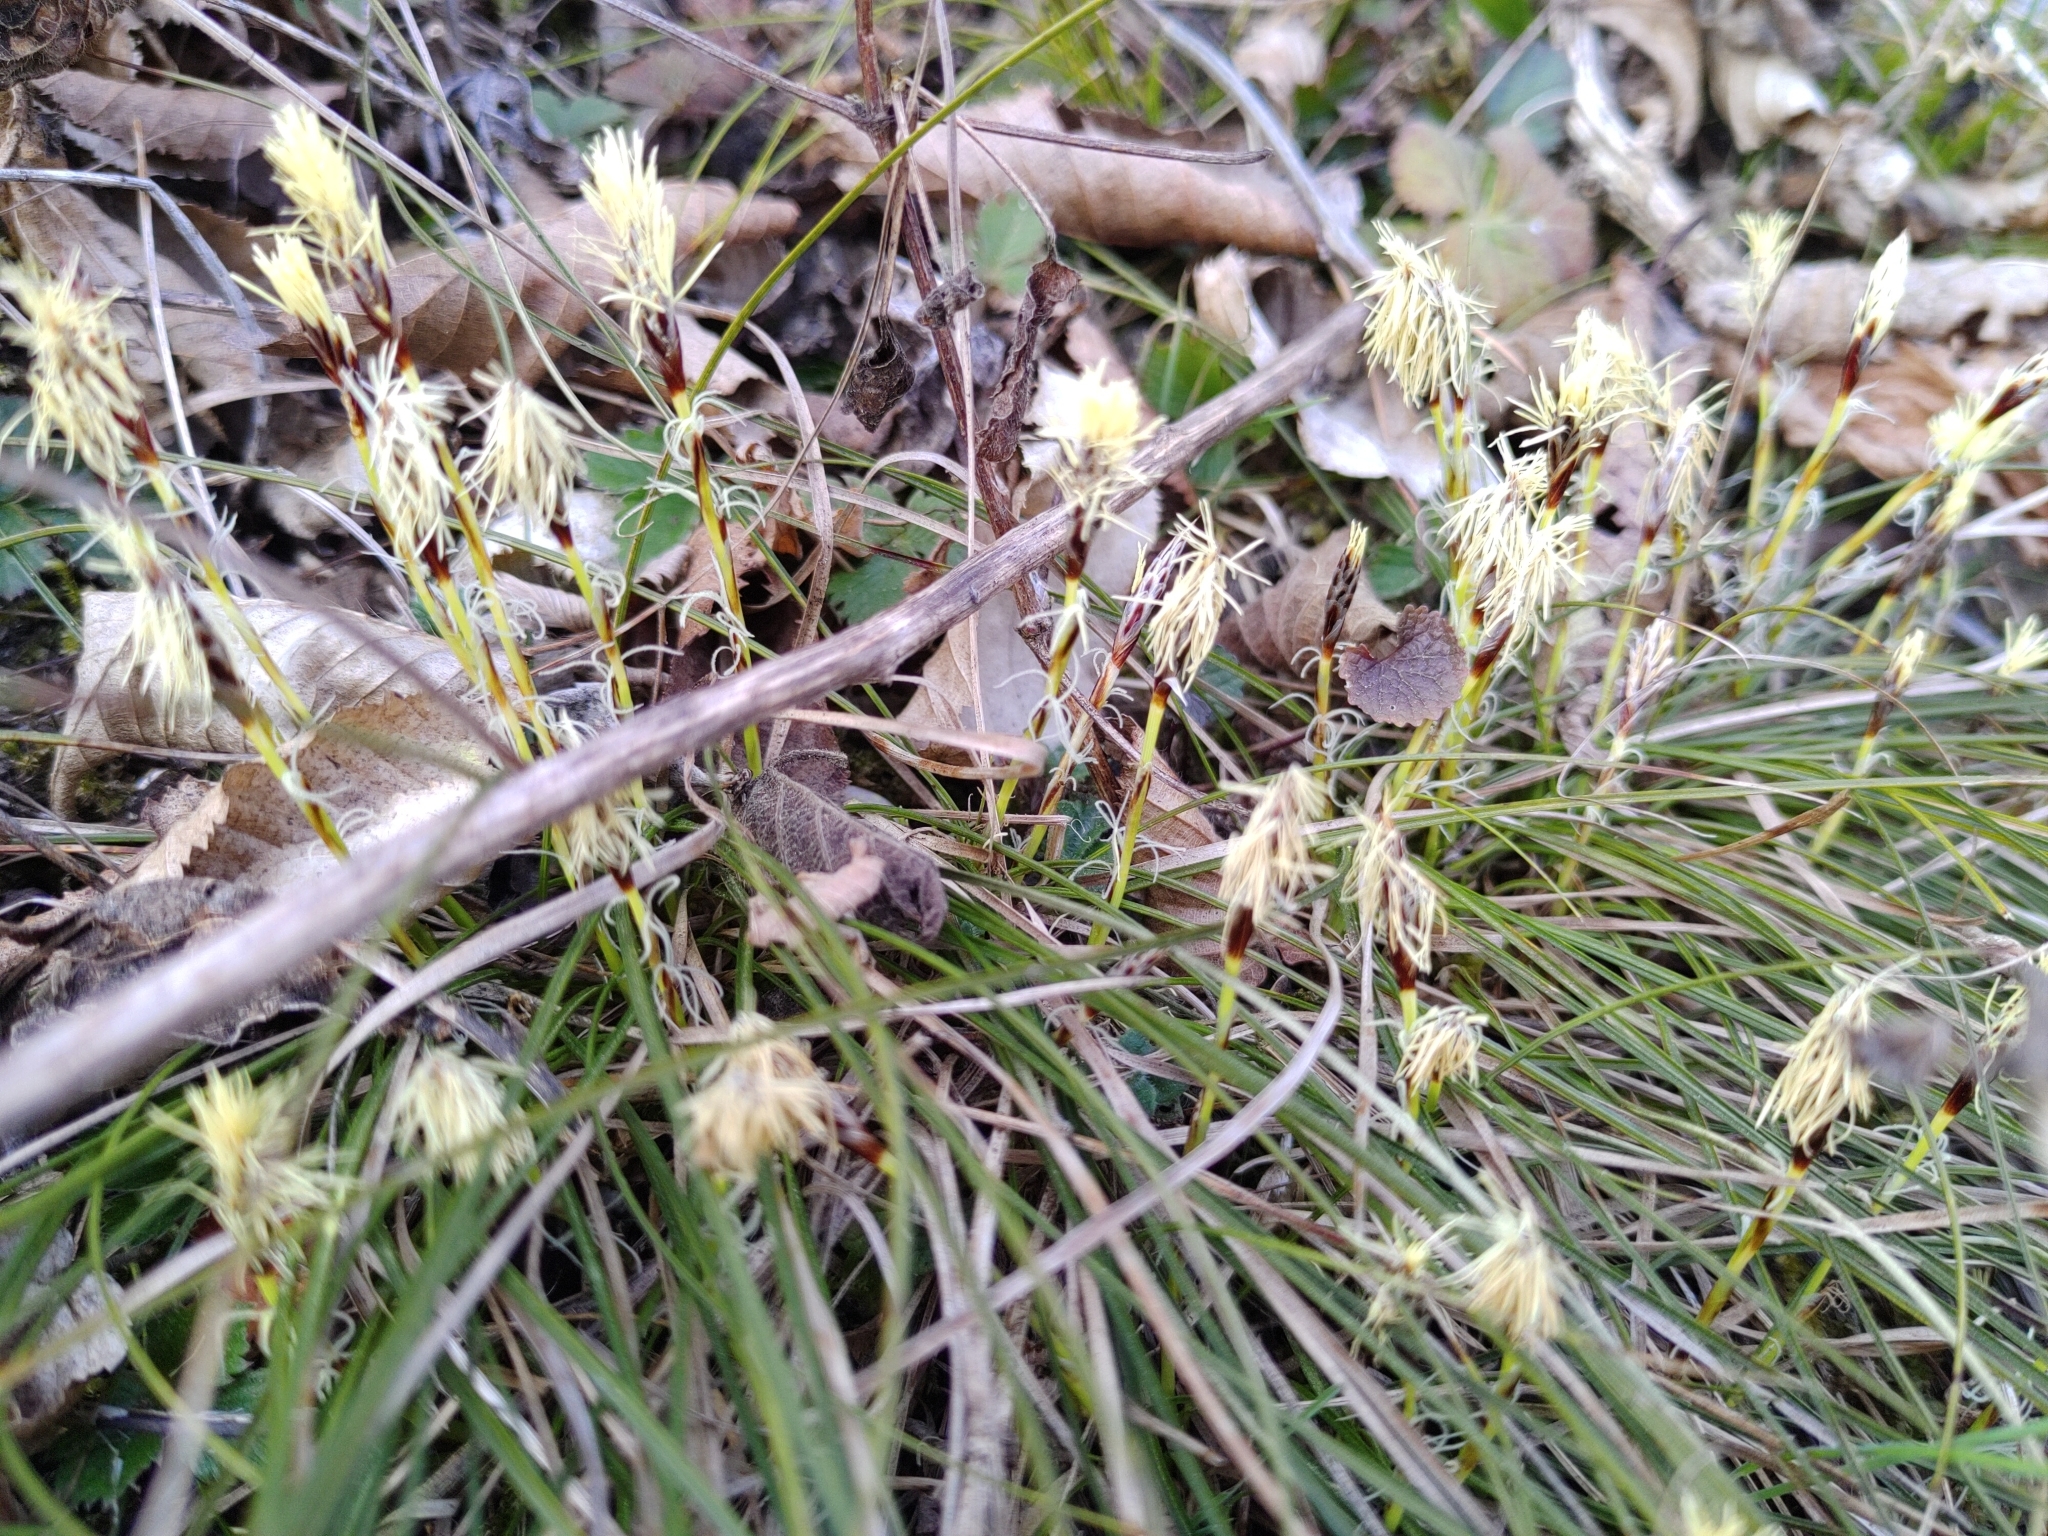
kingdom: Plantae
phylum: Tracheophyta
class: Liliopsida
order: Poales
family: Cyperaceae
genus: Carex
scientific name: Carex humilis
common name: Dwarf sedge
